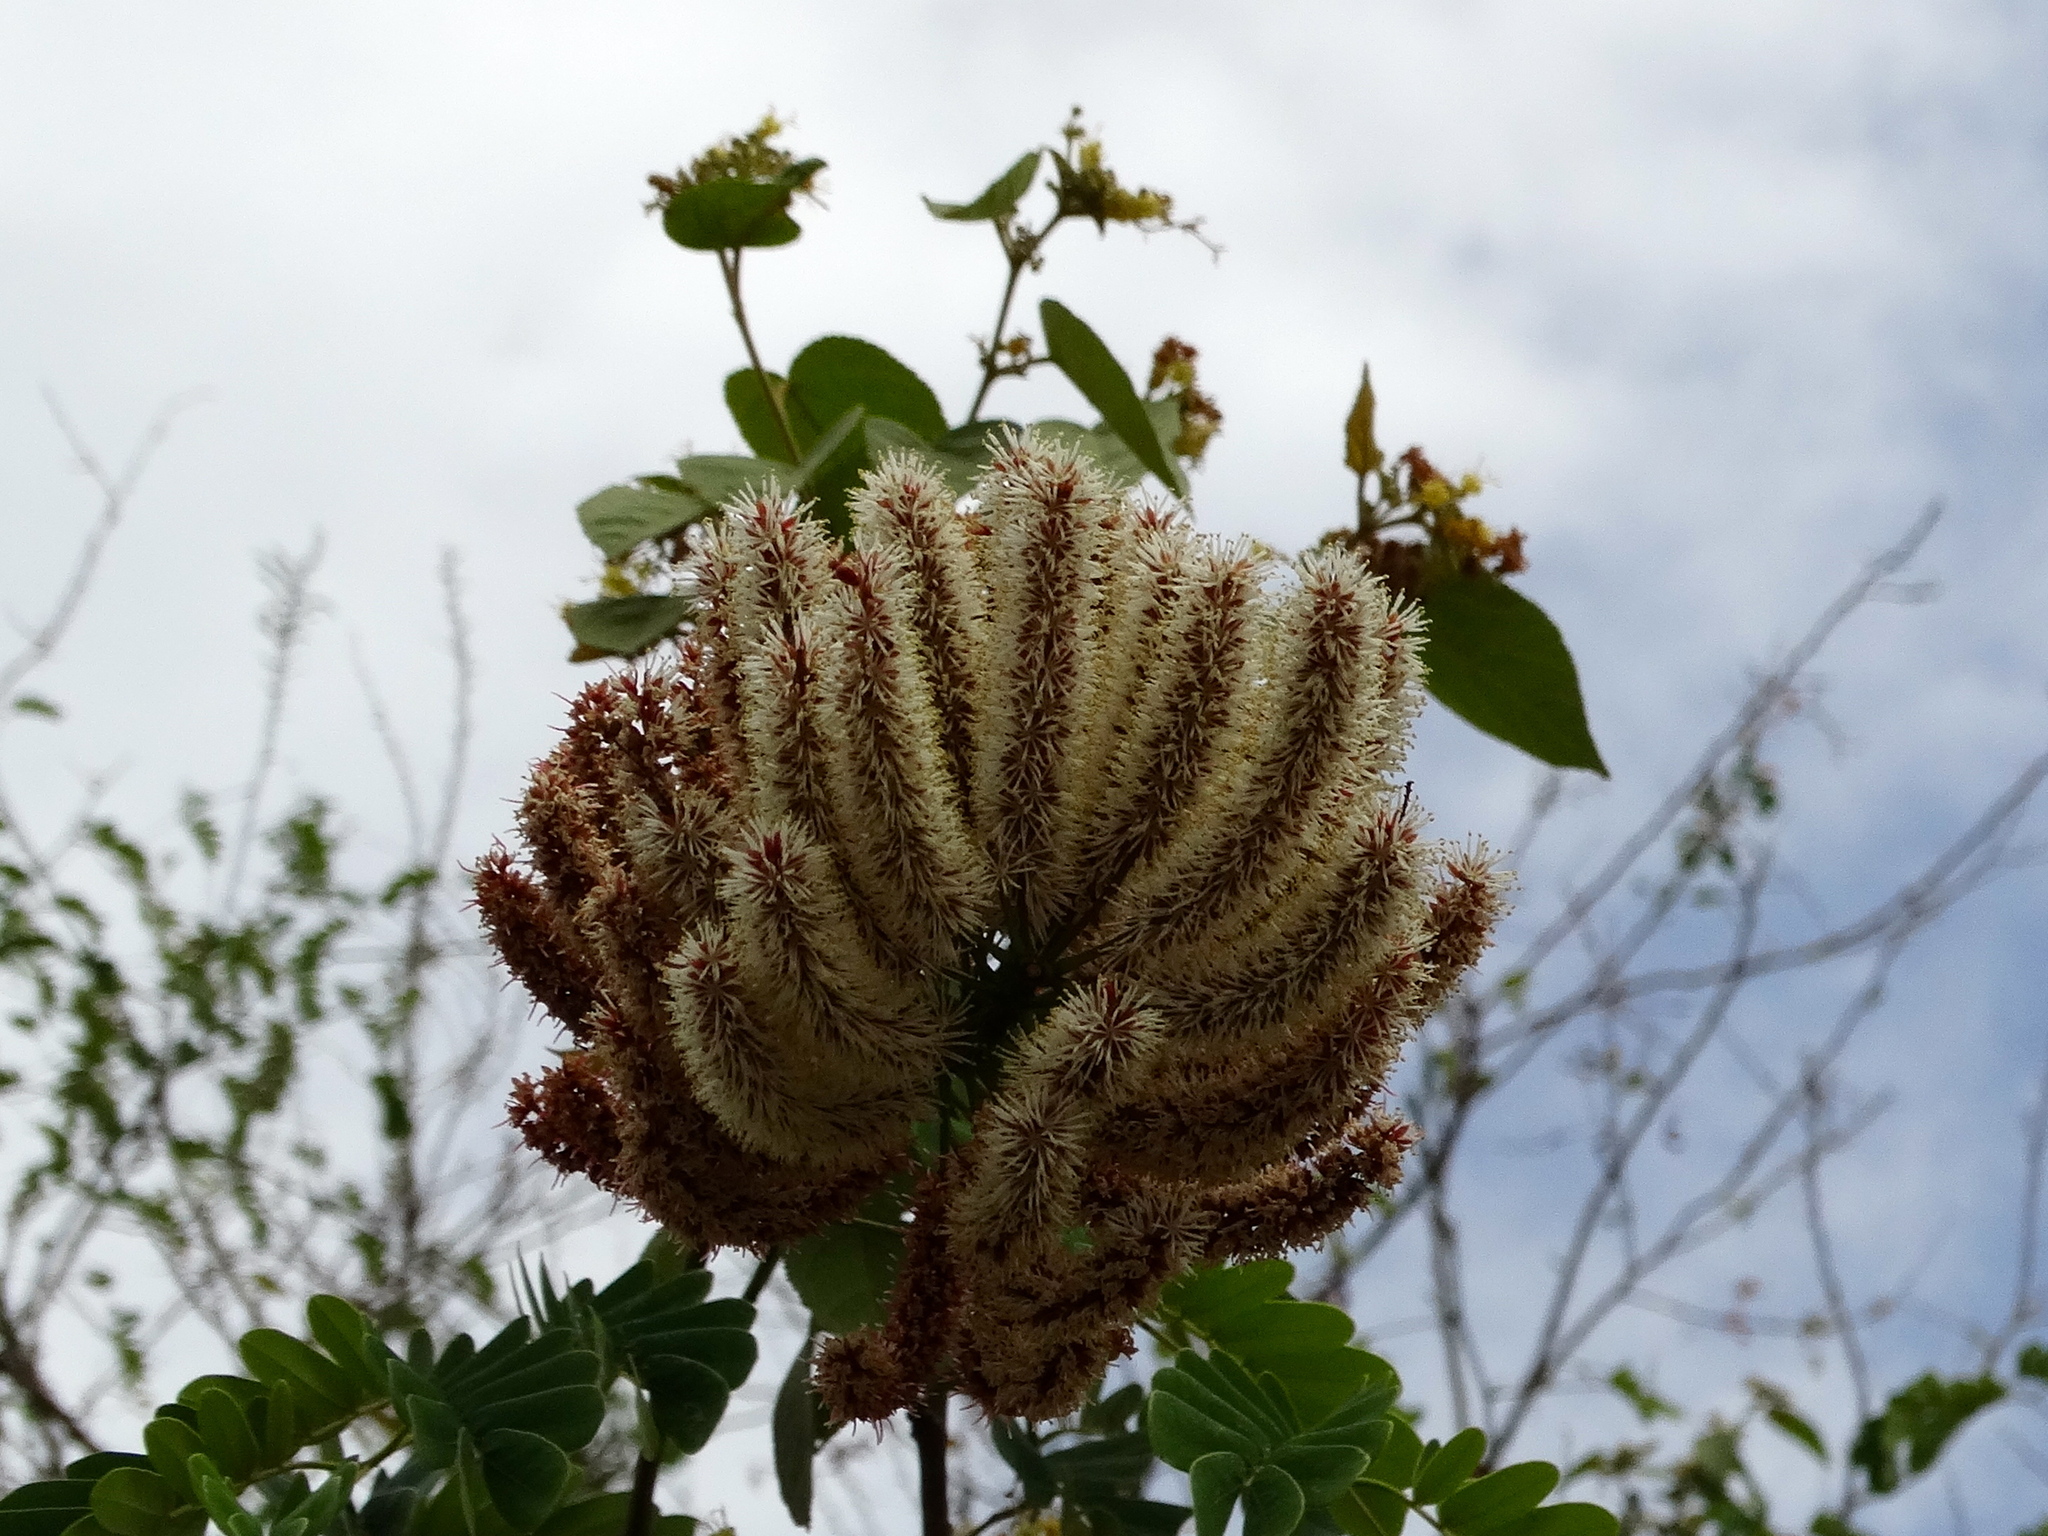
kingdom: Plantae
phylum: Tracheophyta
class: Magnoliopsida
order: Fabales
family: Fabaceae
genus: Entada
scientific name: Entada polystachya
